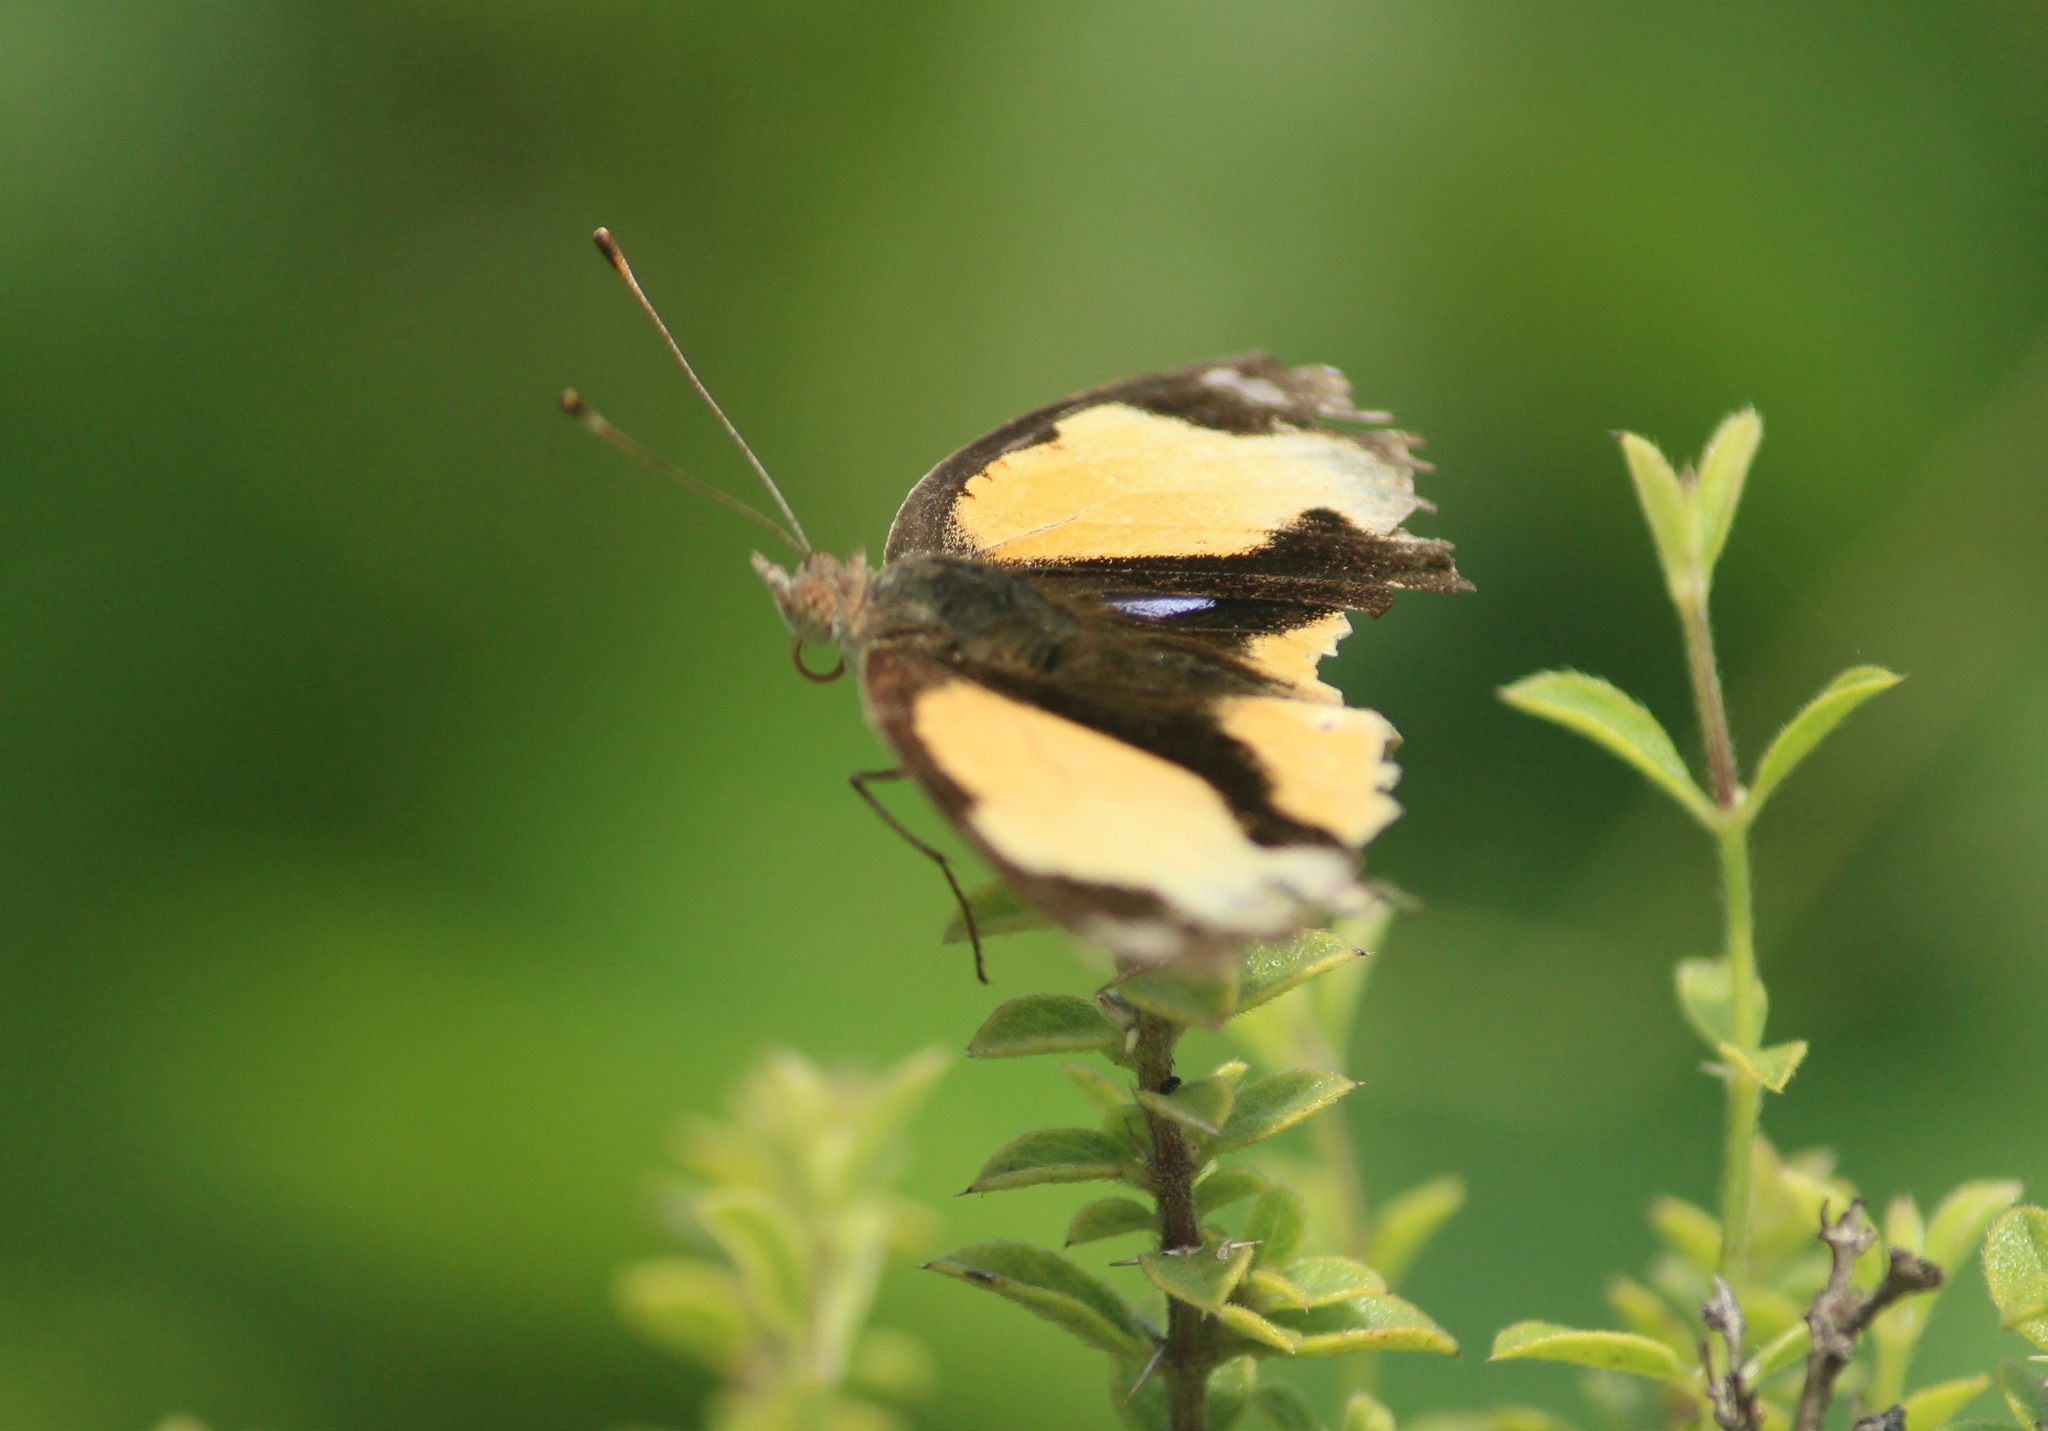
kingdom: Animalia
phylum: Arthropoda
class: Insecta
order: Lepidoptera
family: Nymphalidae
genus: Junonia
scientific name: Junonia hierta
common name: Yellow pansy
